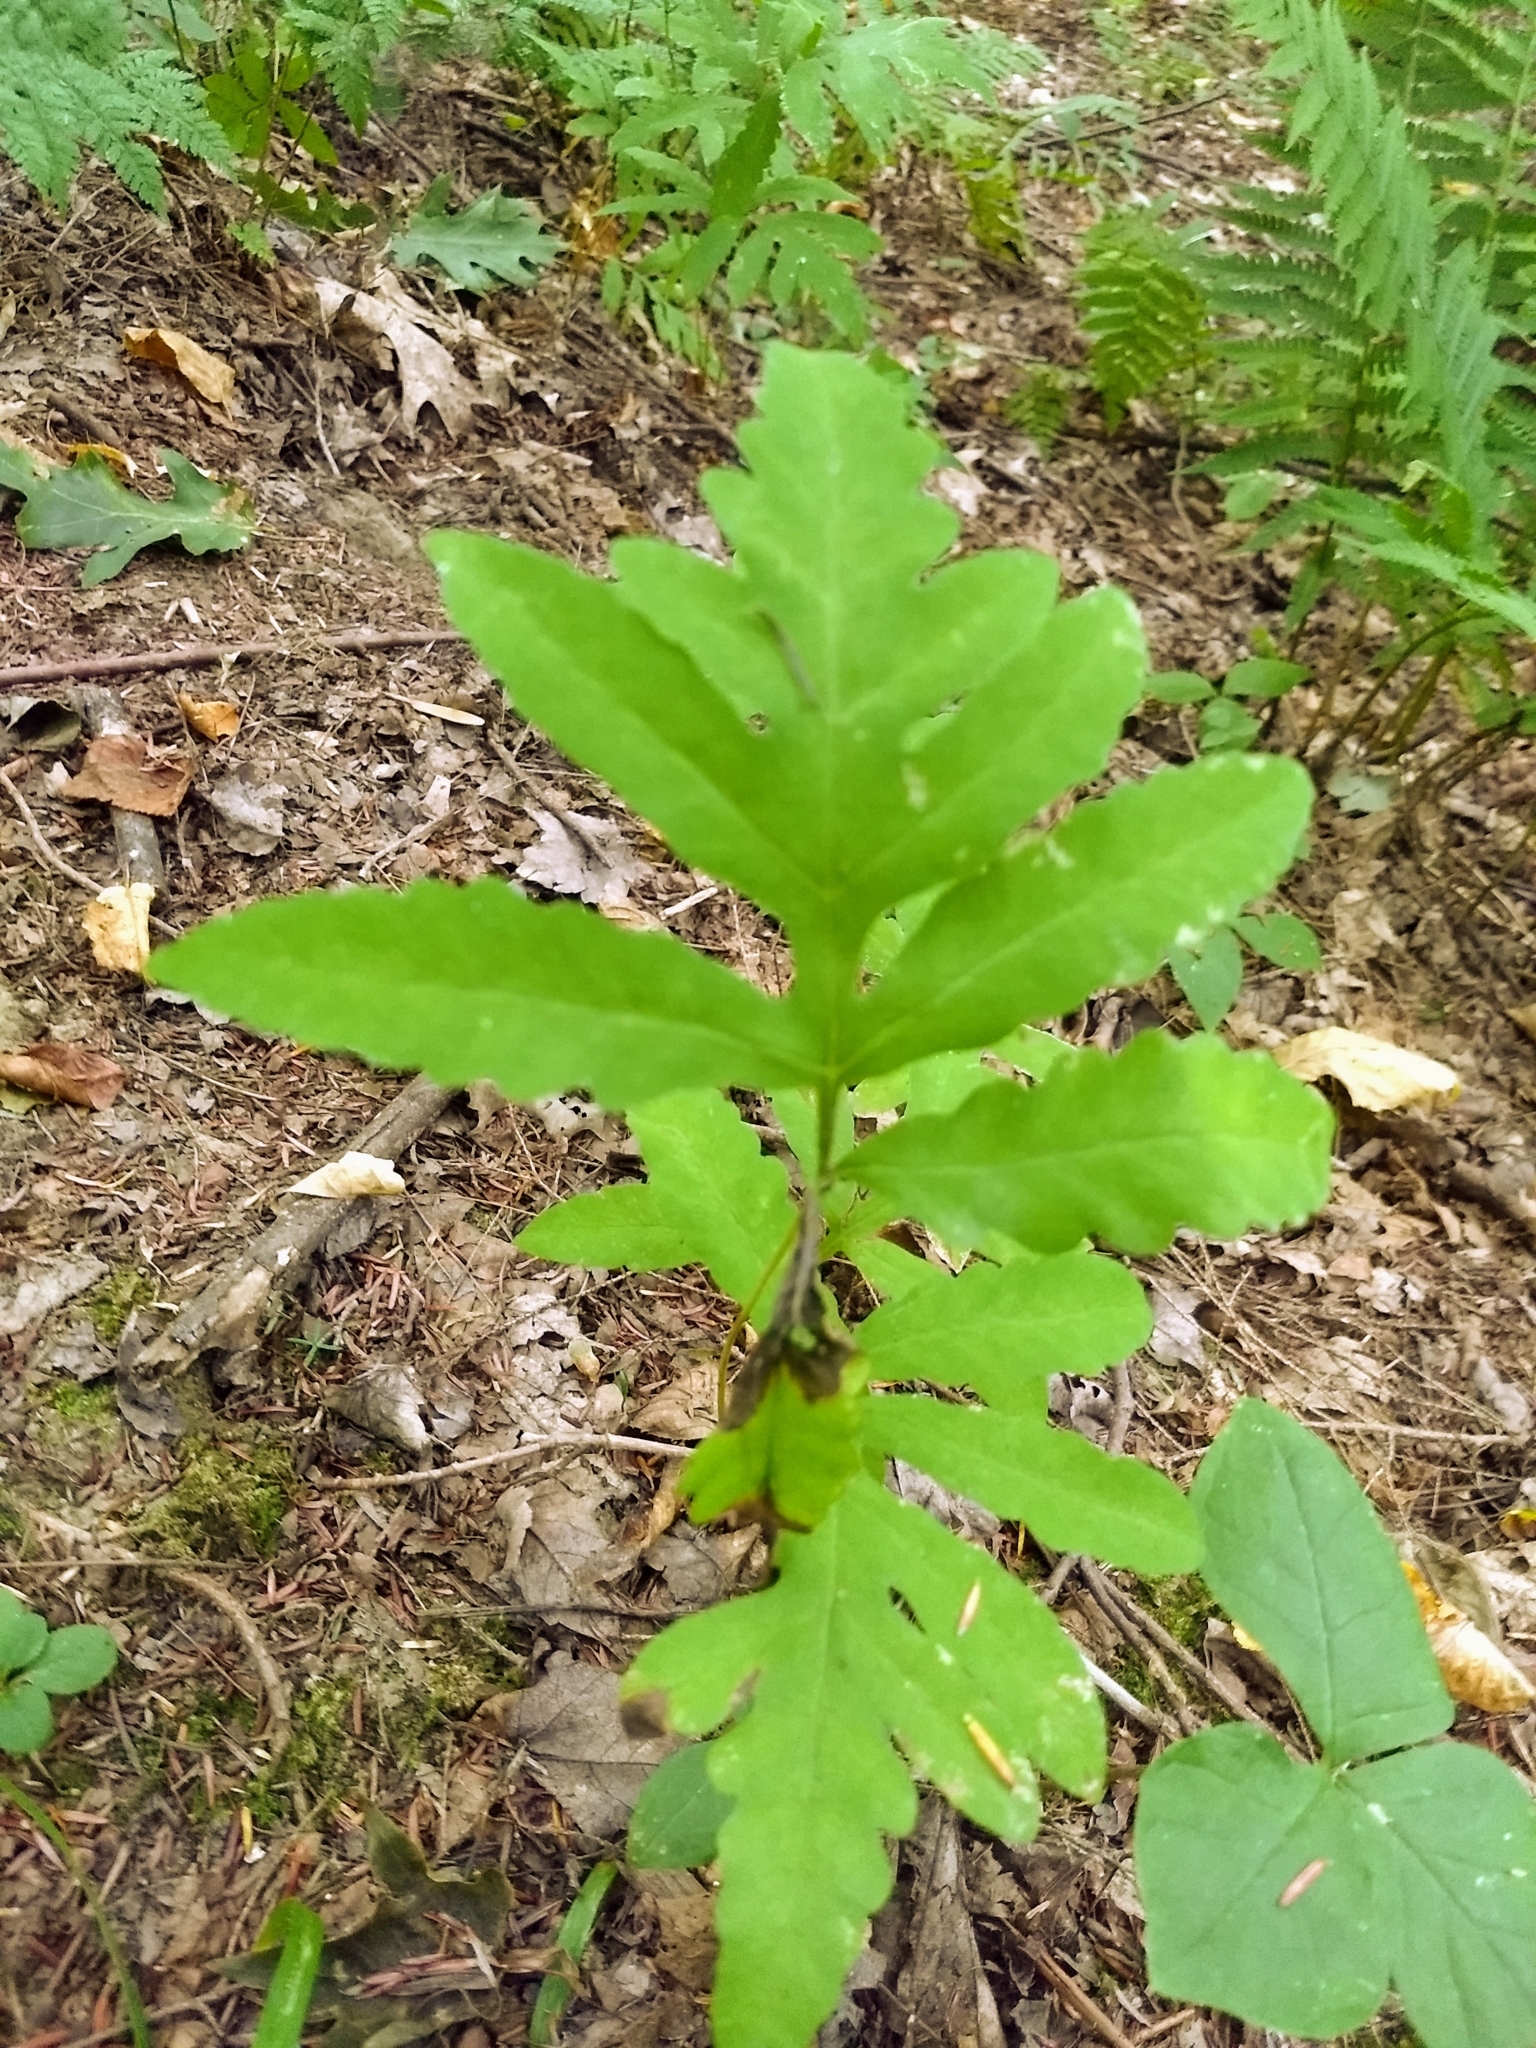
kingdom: Plantae
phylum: Tracheophyta
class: Polypodiopsida
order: Polypodiales
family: Onocleaceae
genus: Onoclea
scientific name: Onoclea sensibilis
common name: Sensitive fern
